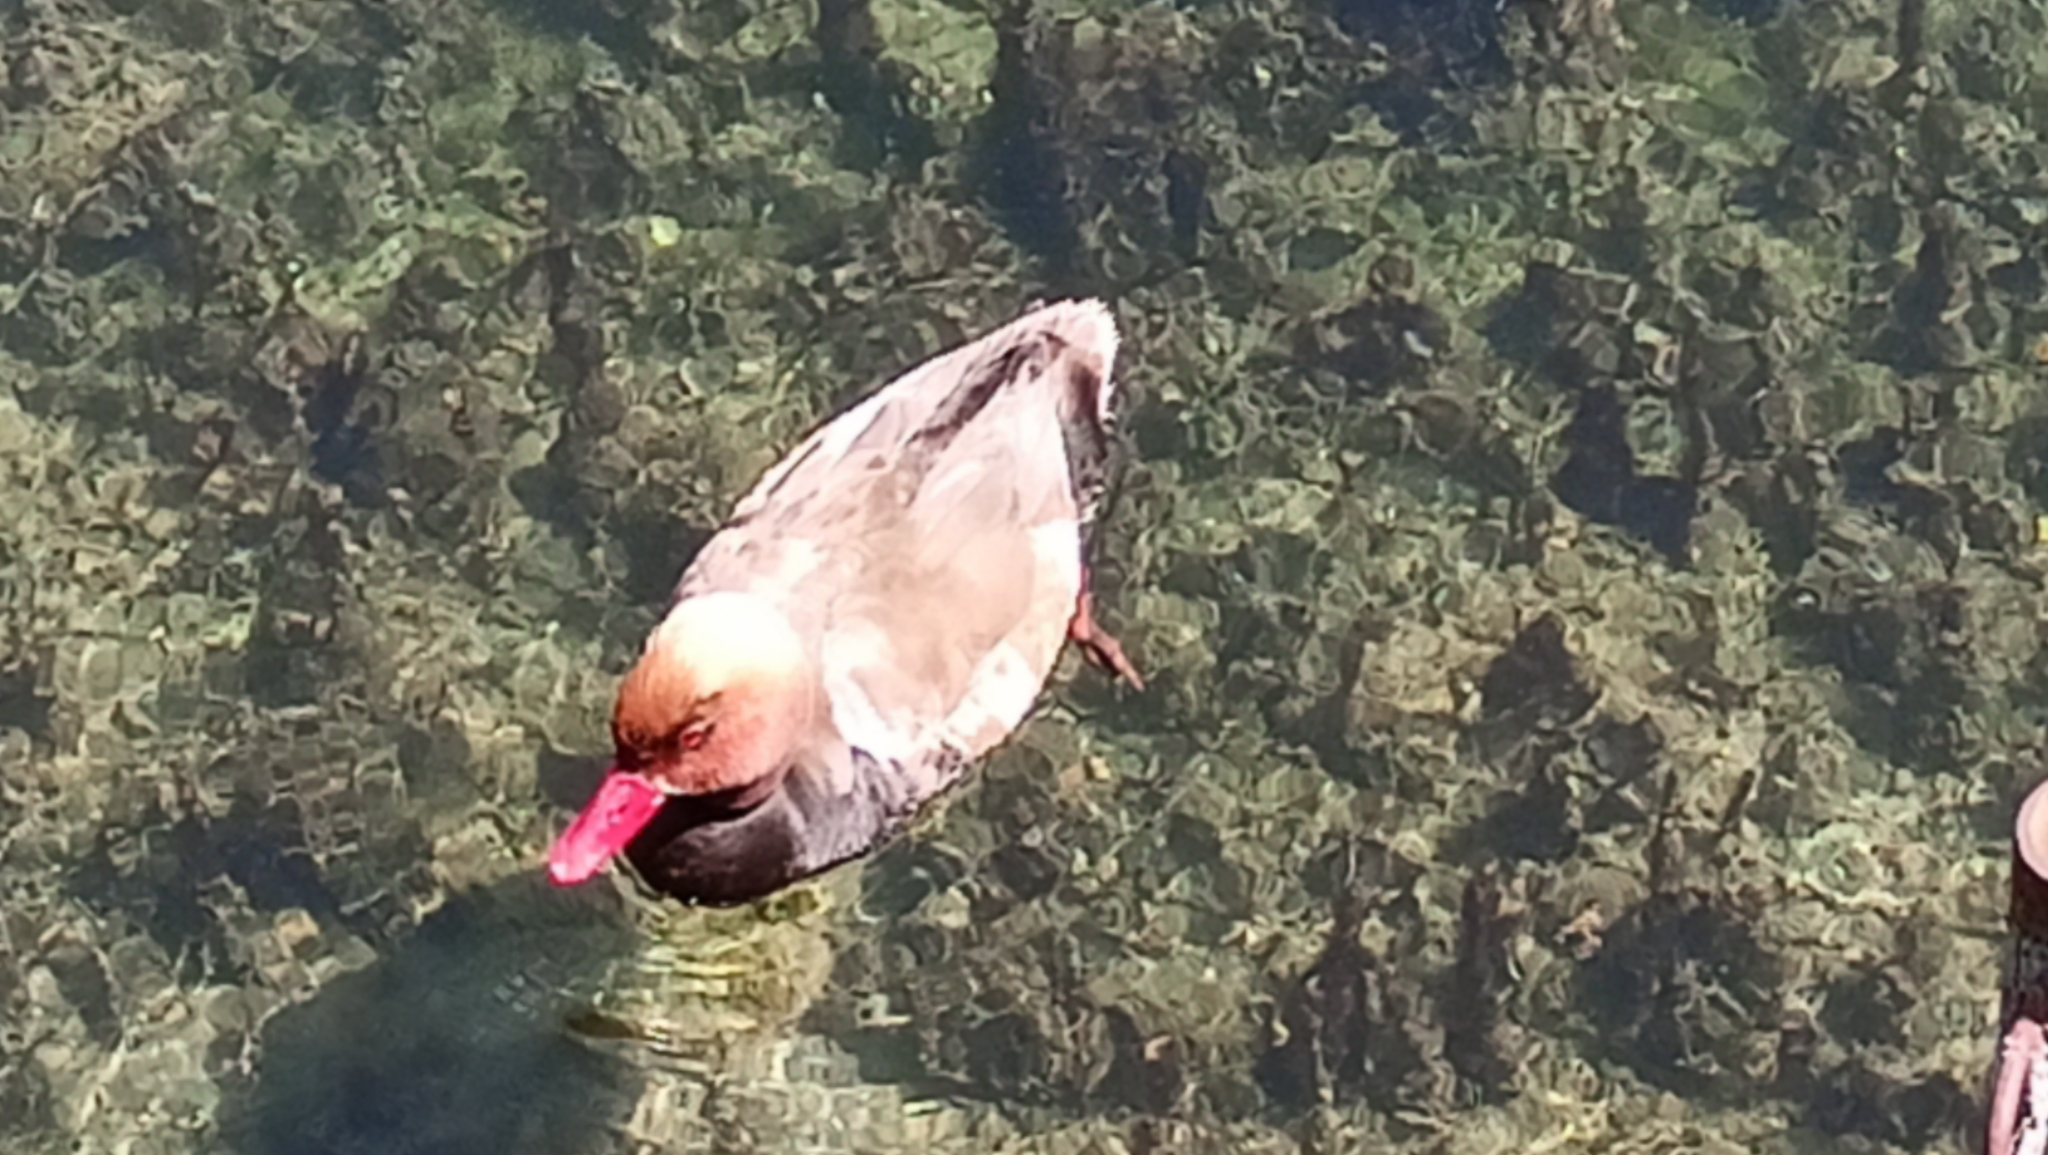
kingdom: Animalia
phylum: Chordata
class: Aves
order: Anseriformes
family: Anatidae
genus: Netta
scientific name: Netta rufina
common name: Red-crested pochard
